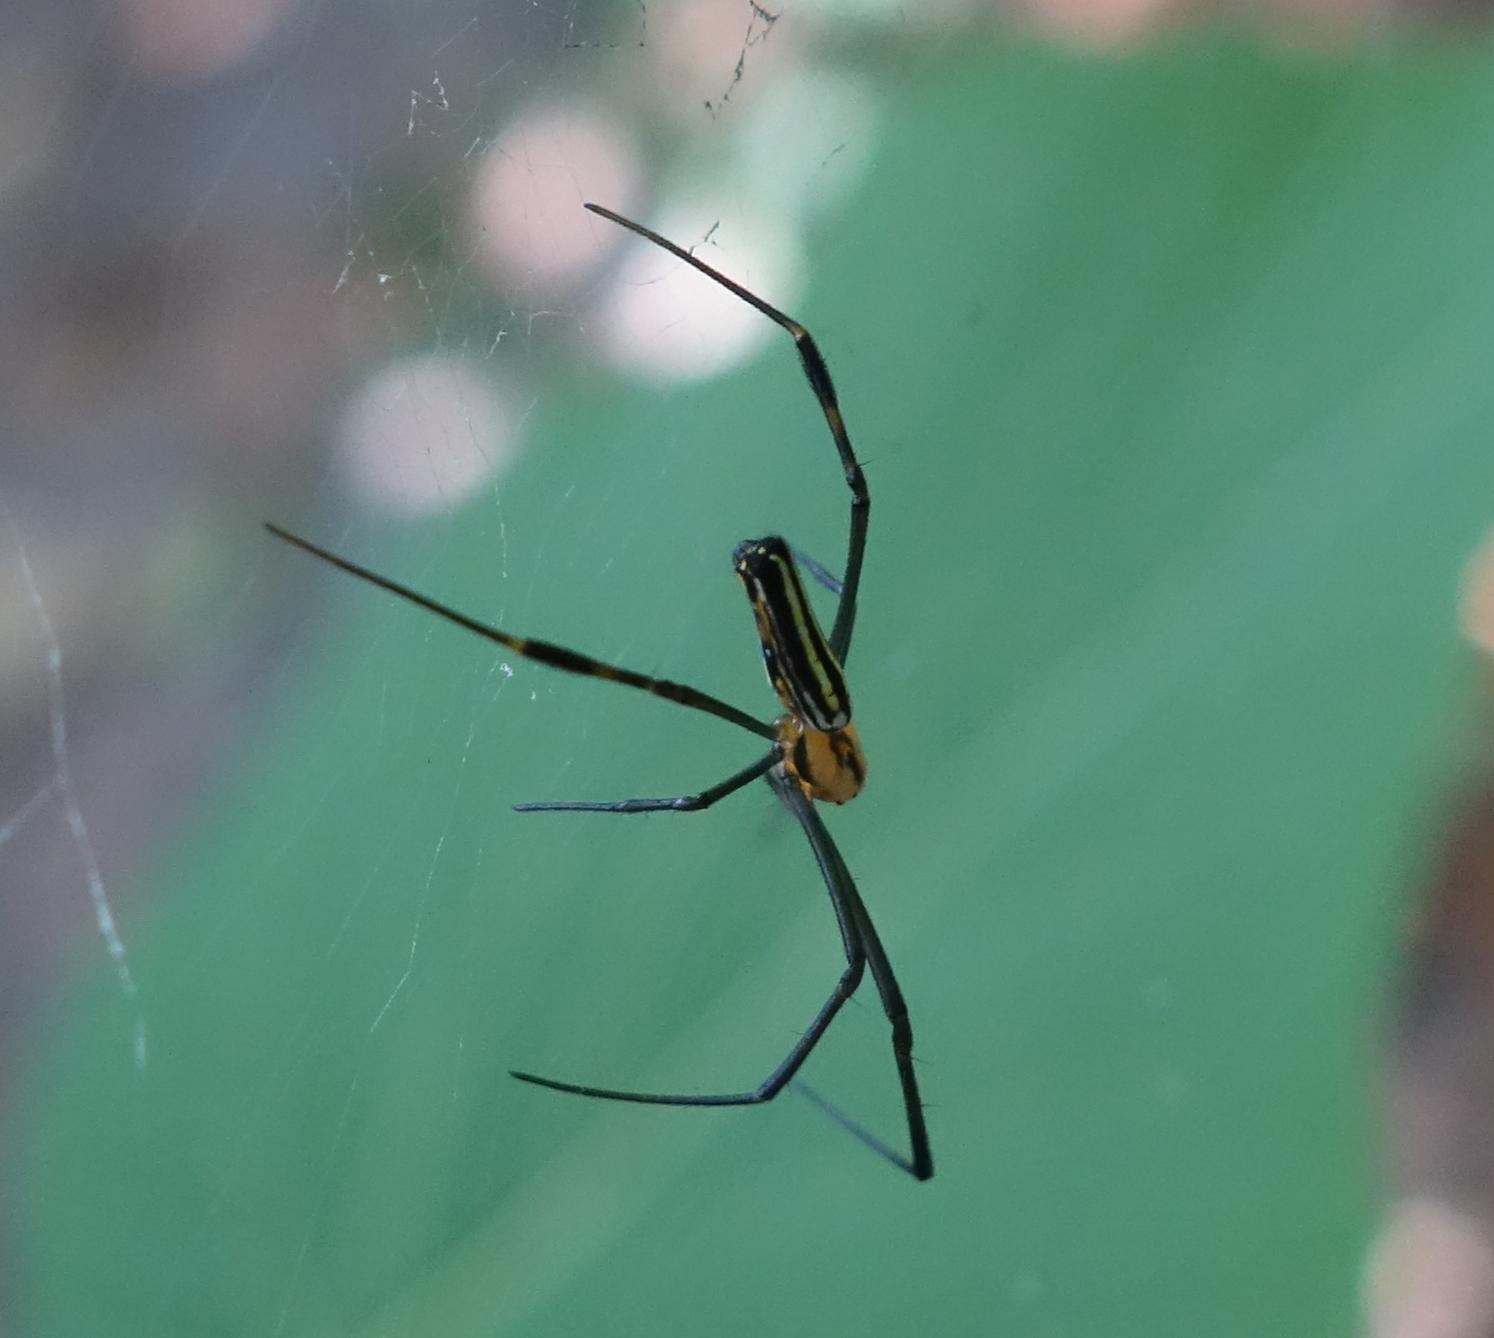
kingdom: Animalia
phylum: Arthropoda
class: Arachnida
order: Araneae
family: Araneidae
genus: Nephila
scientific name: Nephila pilipes
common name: Giant golden orb weaver
